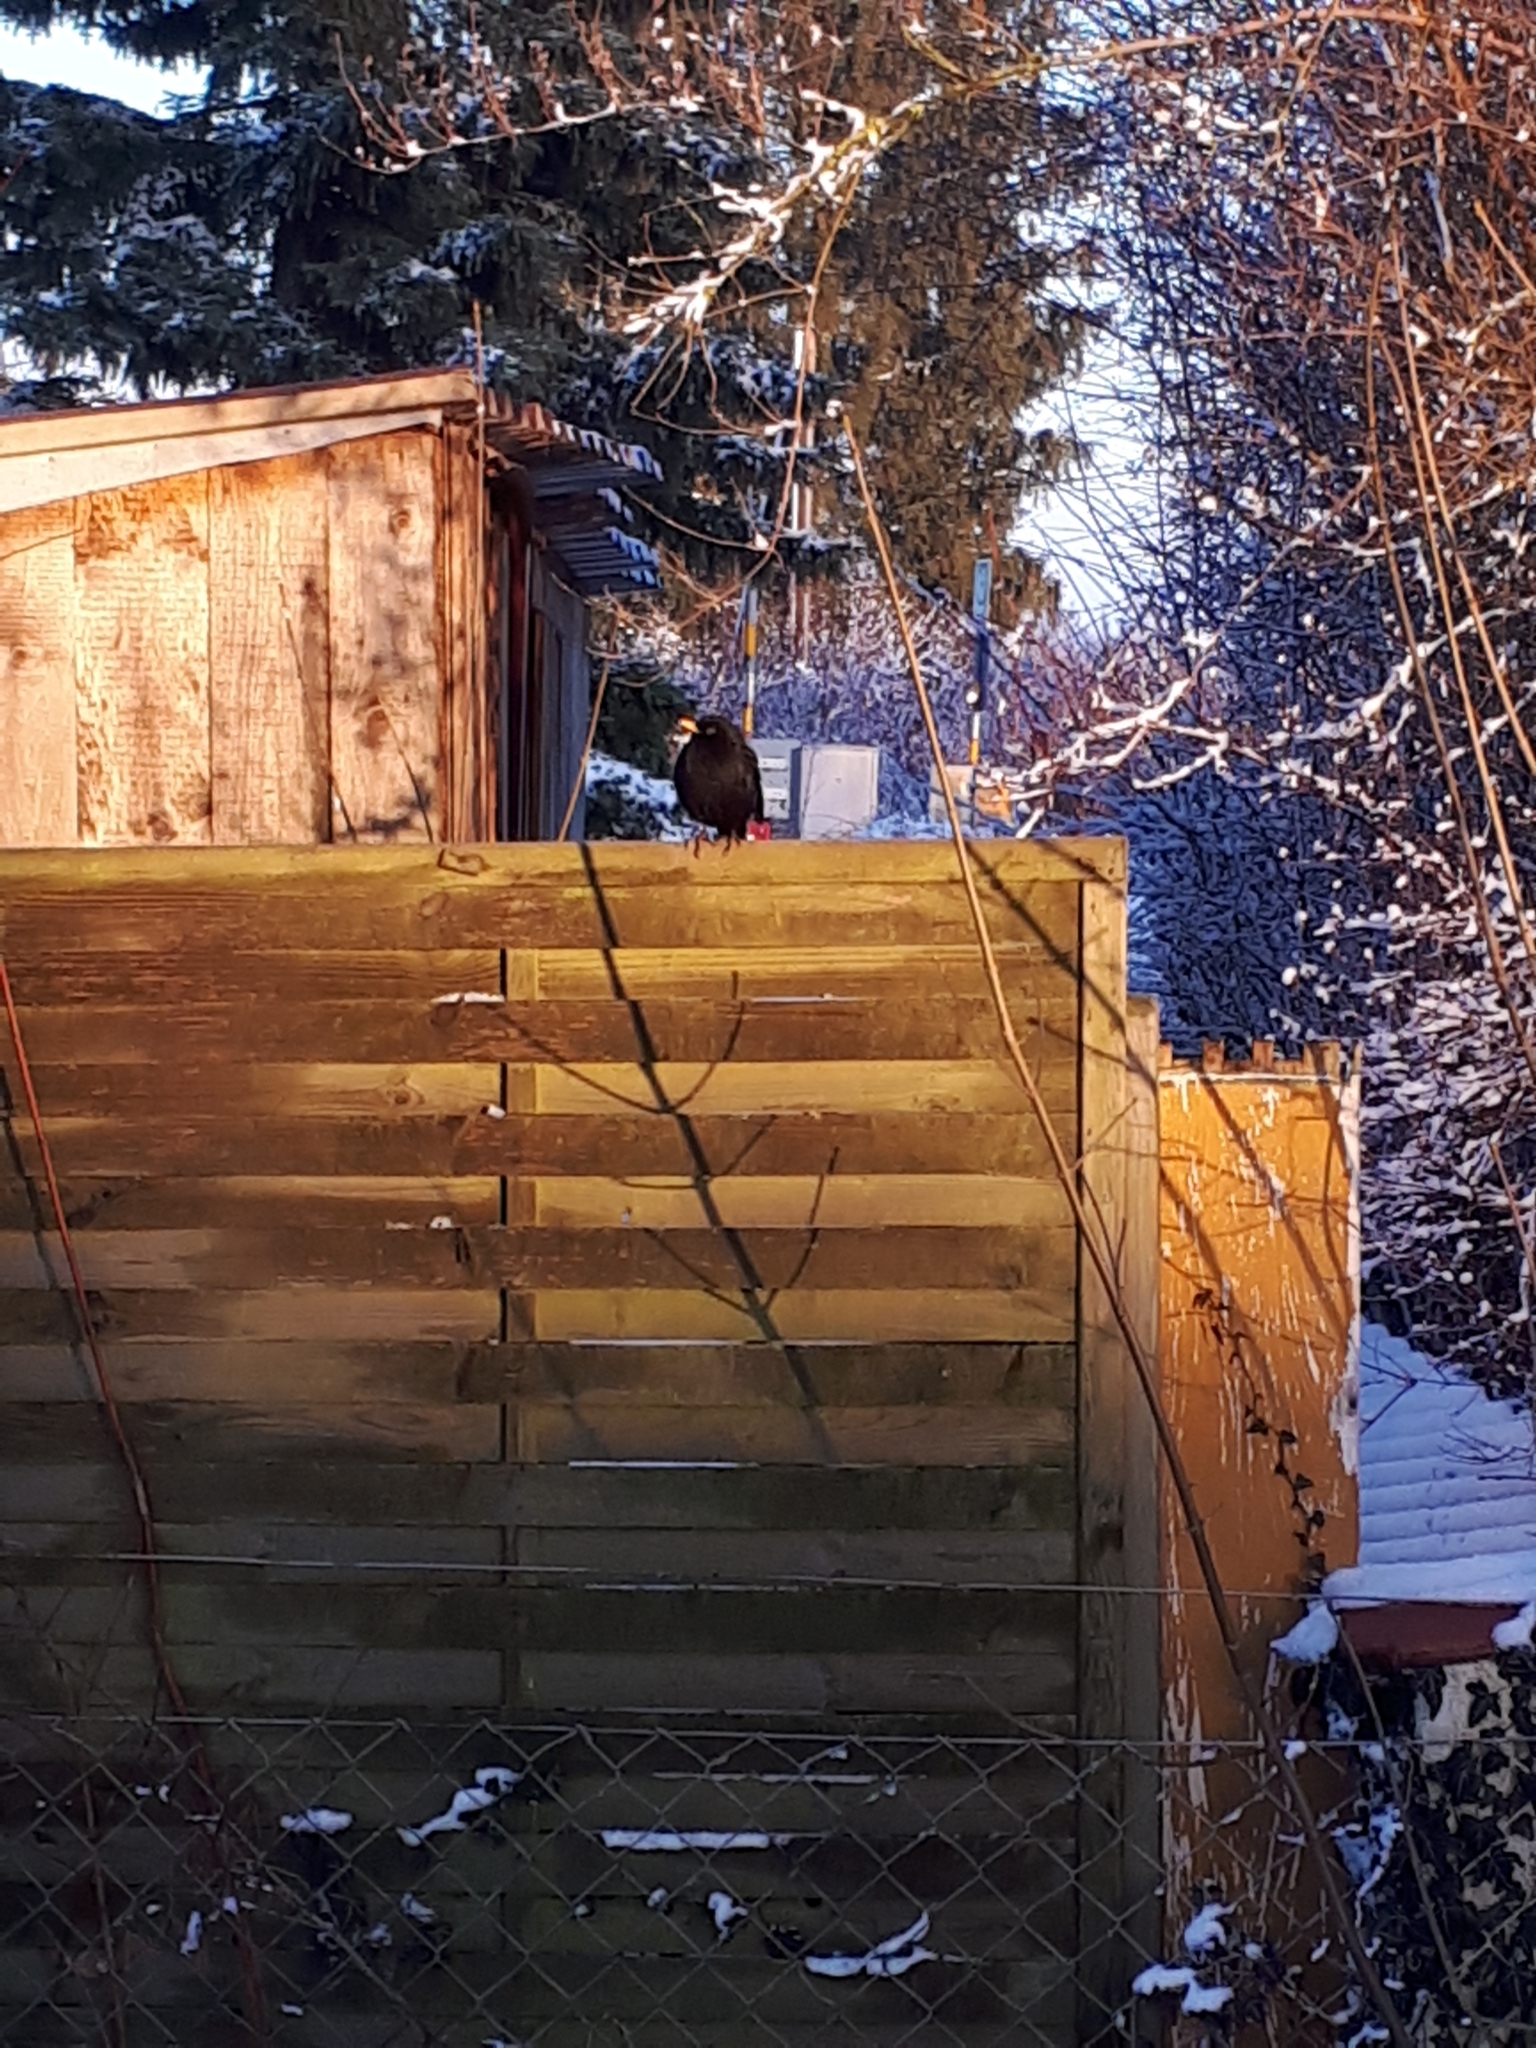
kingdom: Animalia
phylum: Chordata
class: Aves
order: Passeriformes
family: Turdidae
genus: Turdus
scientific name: Turdus merula
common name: Common blackbird
